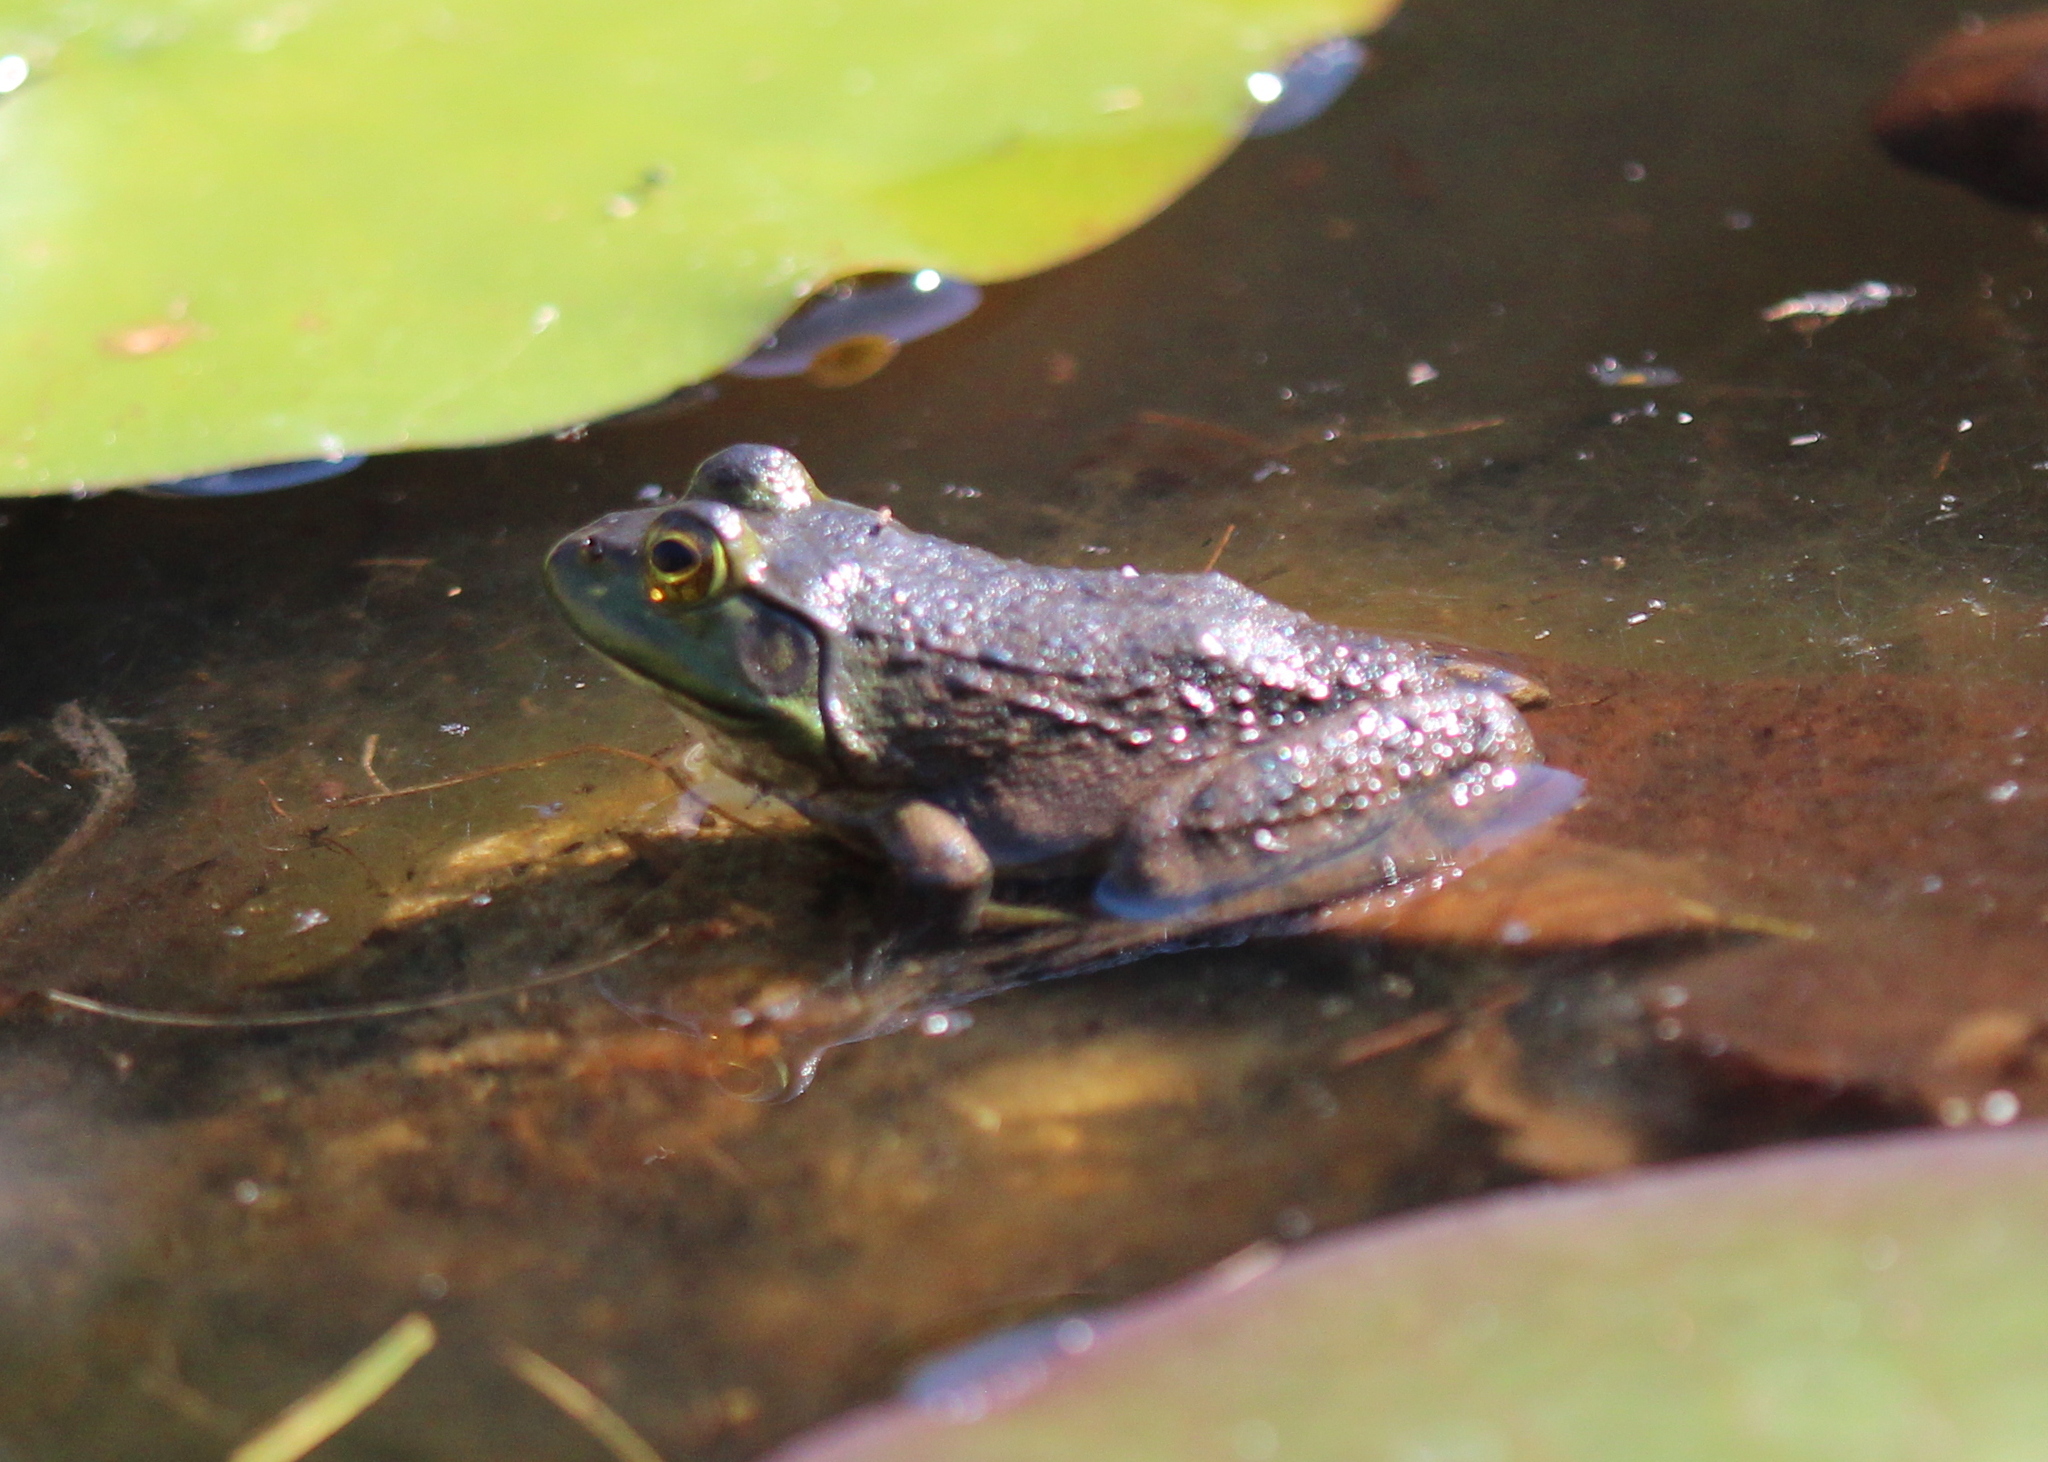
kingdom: Animalia
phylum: Chordata
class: Amphibia
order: Anura
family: Ranidae
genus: Lithobates
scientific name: Lithobates catesbeianus
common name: American bullfrog
